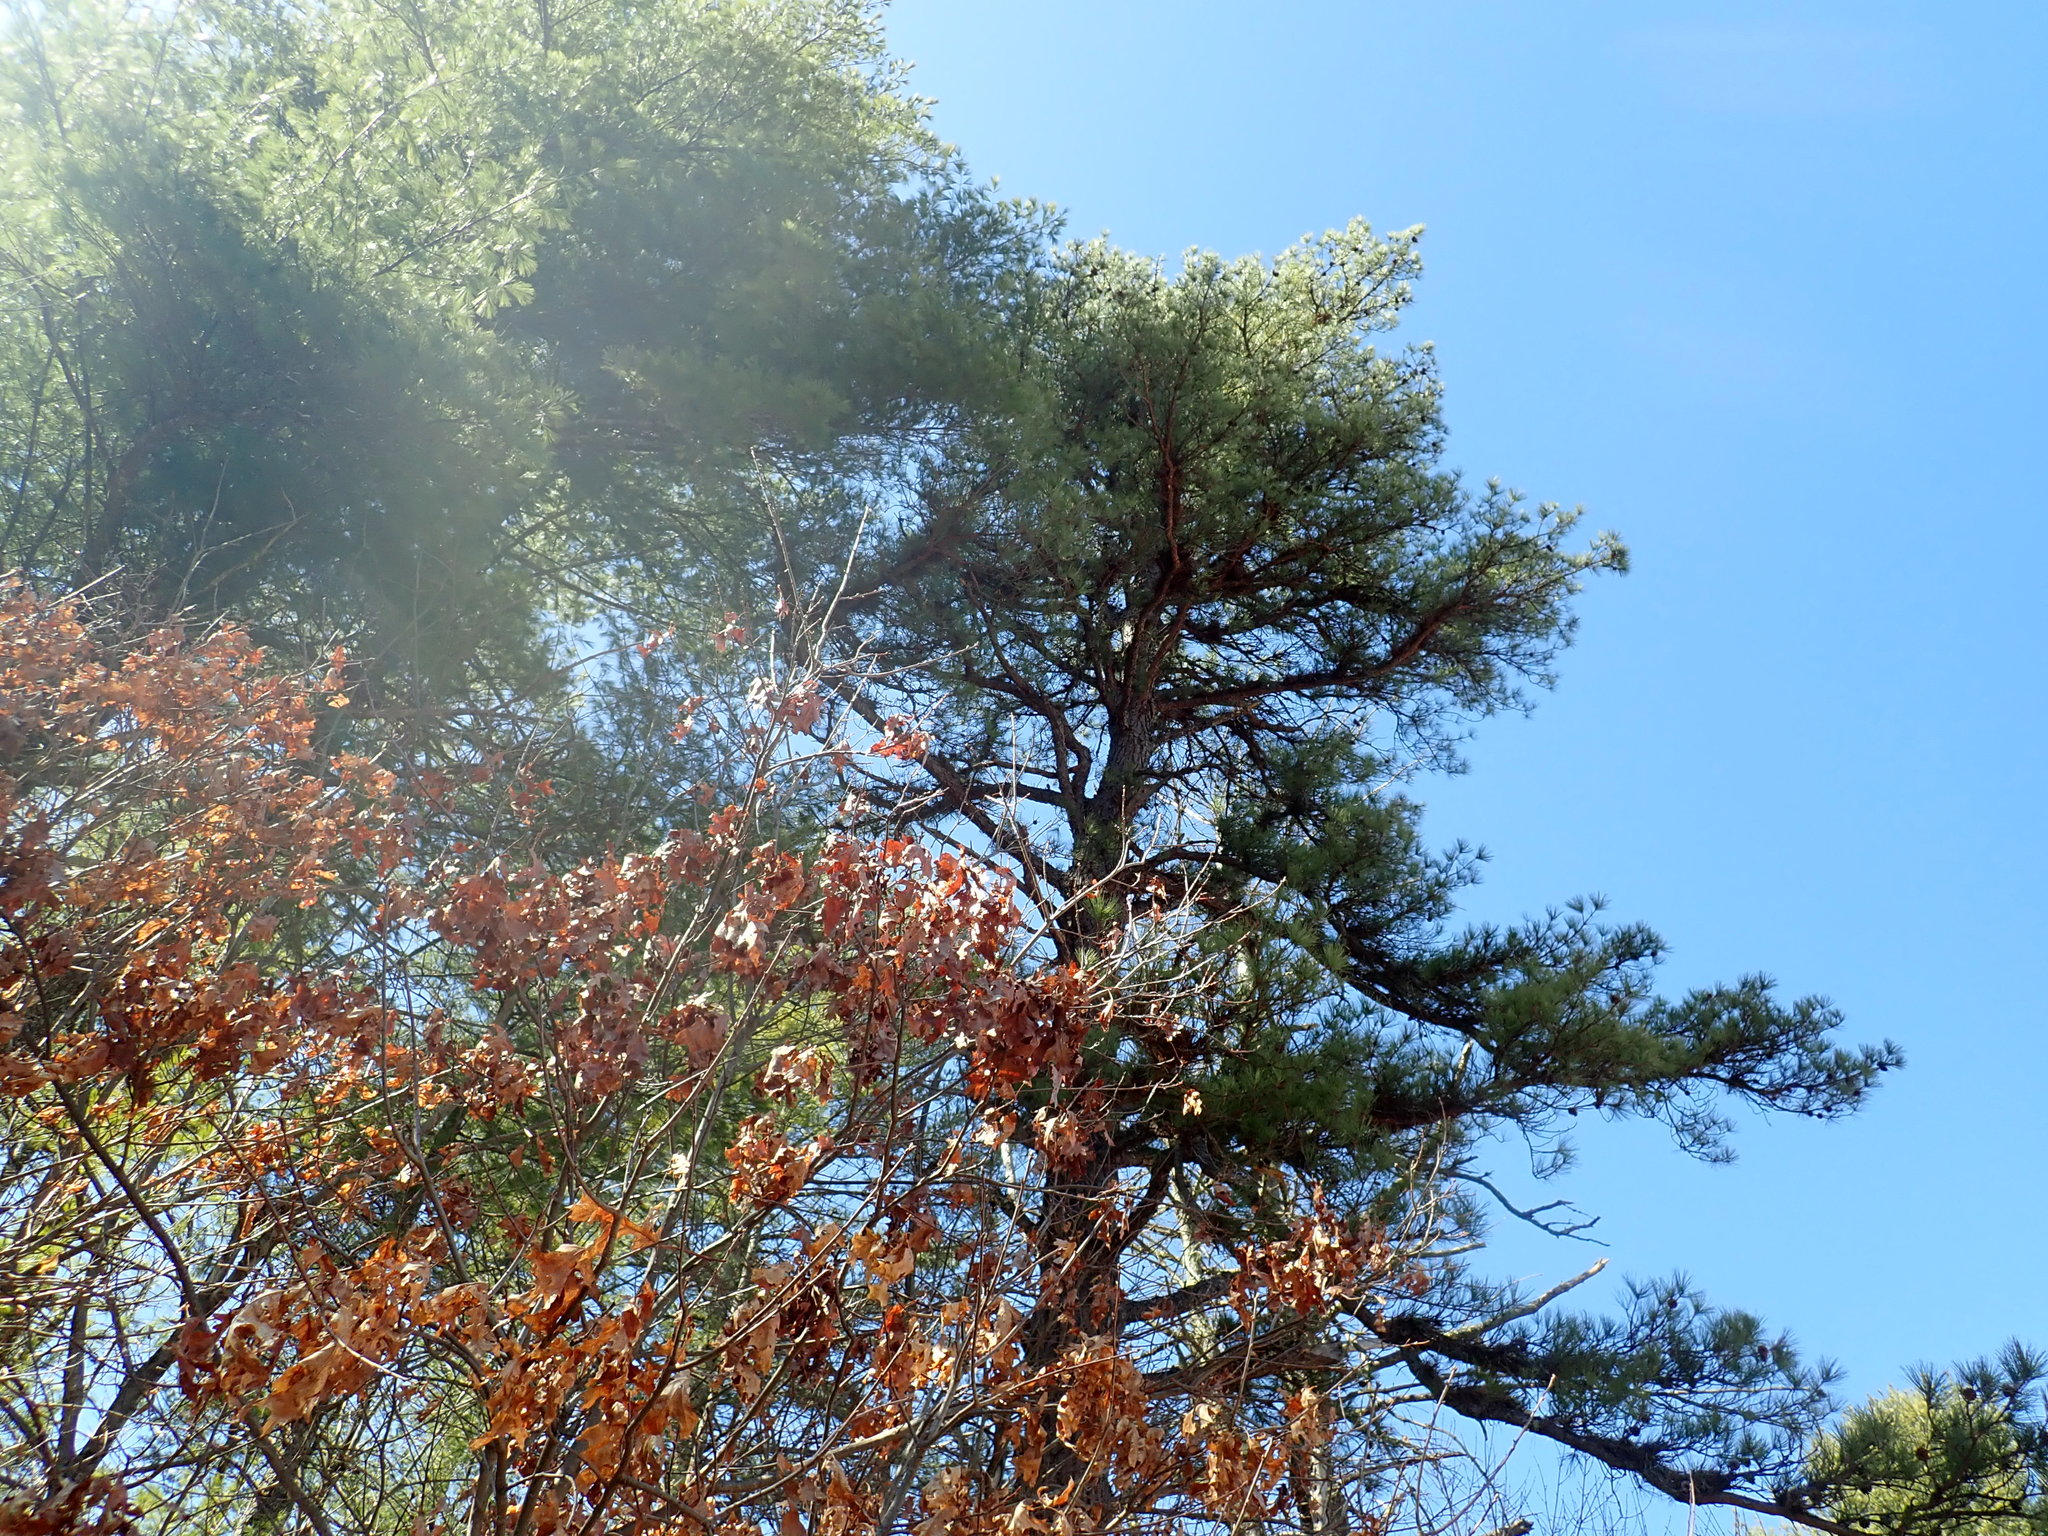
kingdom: Plantae
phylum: Tracheophyta
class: Pinopsida
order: Pinales
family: Pinaceae
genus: Pinus
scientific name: Pinus rigida
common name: Pitch pine
